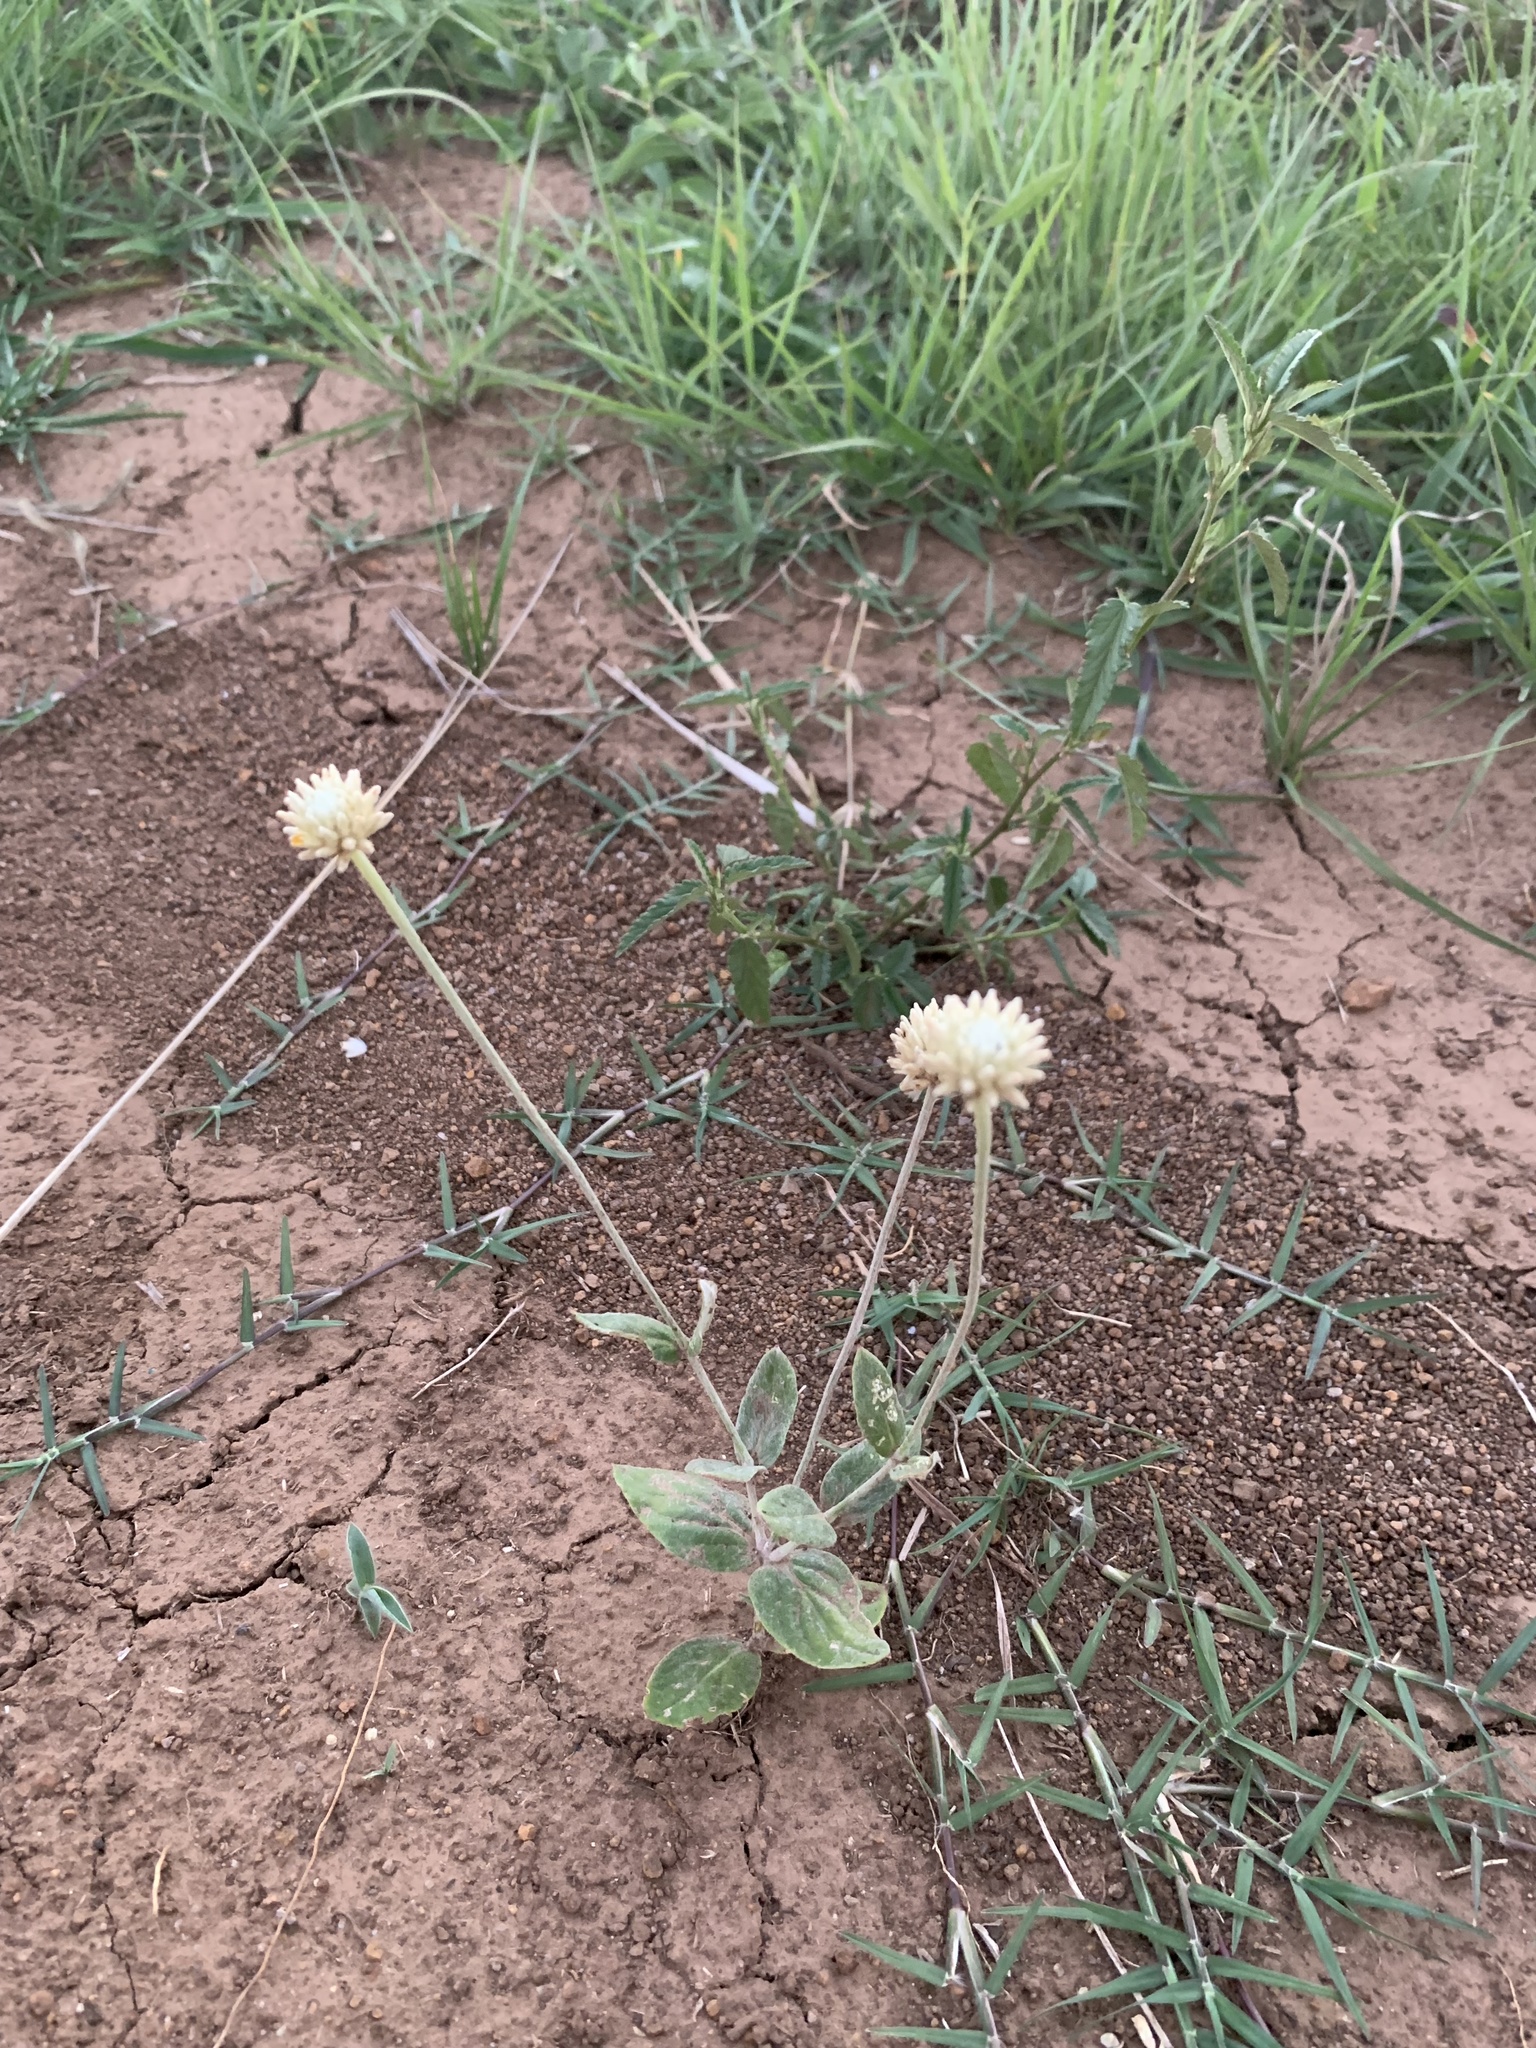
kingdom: Plantae
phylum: Tracheophyta
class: Magnoliopsida
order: Caryophyllales
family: Amaranthaceae
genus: Pfaffia
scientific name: Pfaffia gnaphalioides
